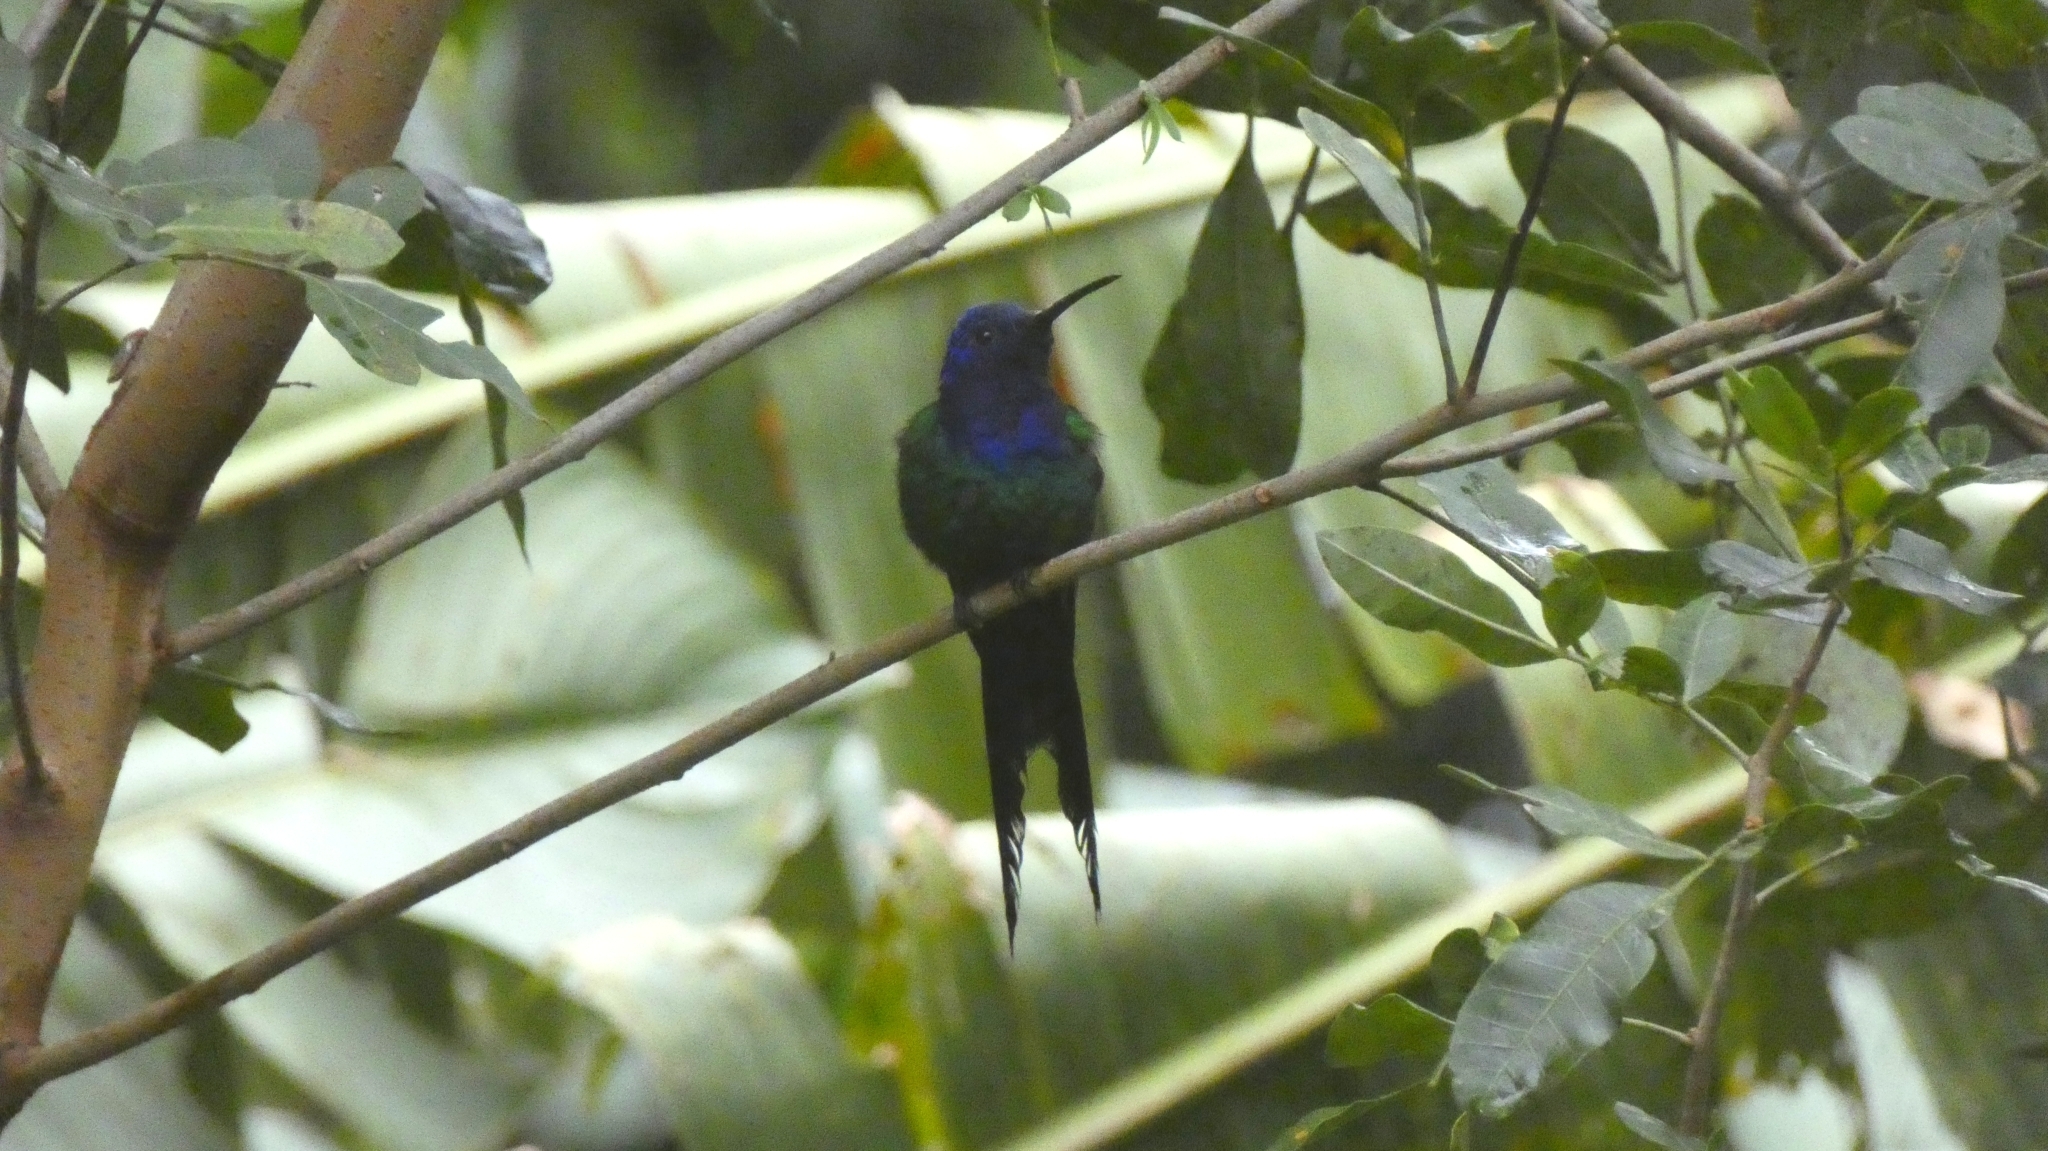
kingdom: Animalia
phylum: Chordata
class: Aves
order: Apodiformes
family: Trochilidae
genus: Eupetomena
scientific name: Eupetomena macroura
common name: Swallow-tailed hummingbird
